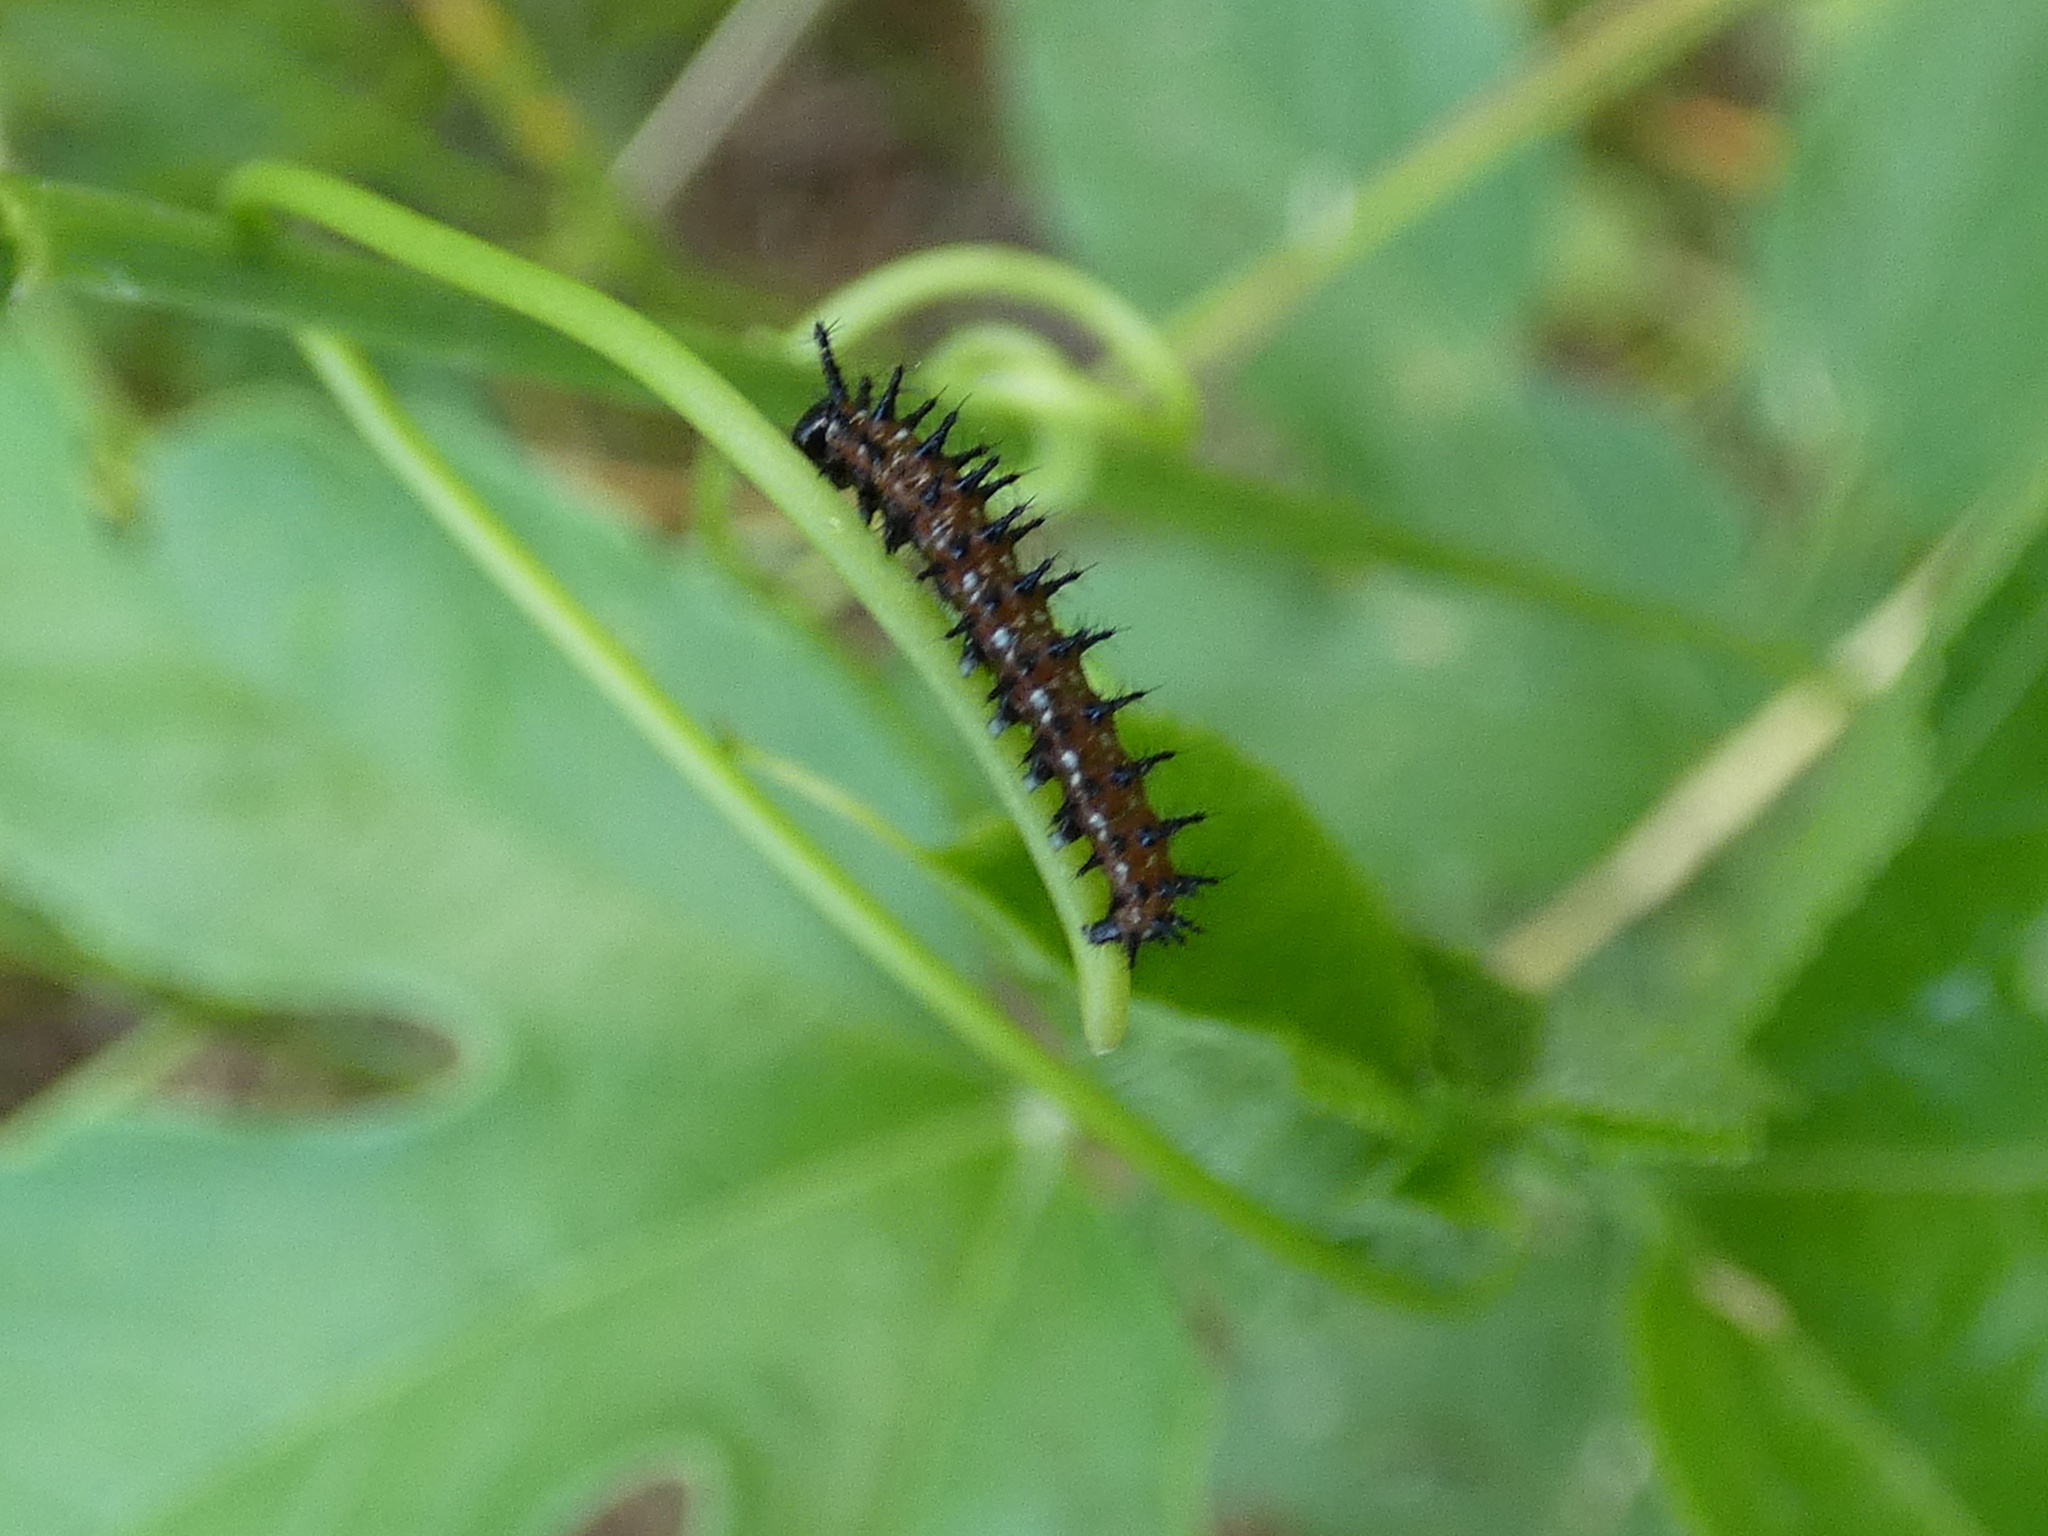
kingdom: Animalia
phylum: Arthropoda
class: Insecta
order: Lepidoptera
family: Nymphalidae
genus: Dione
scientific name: Dione vanillae
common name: Gulf fritillary
